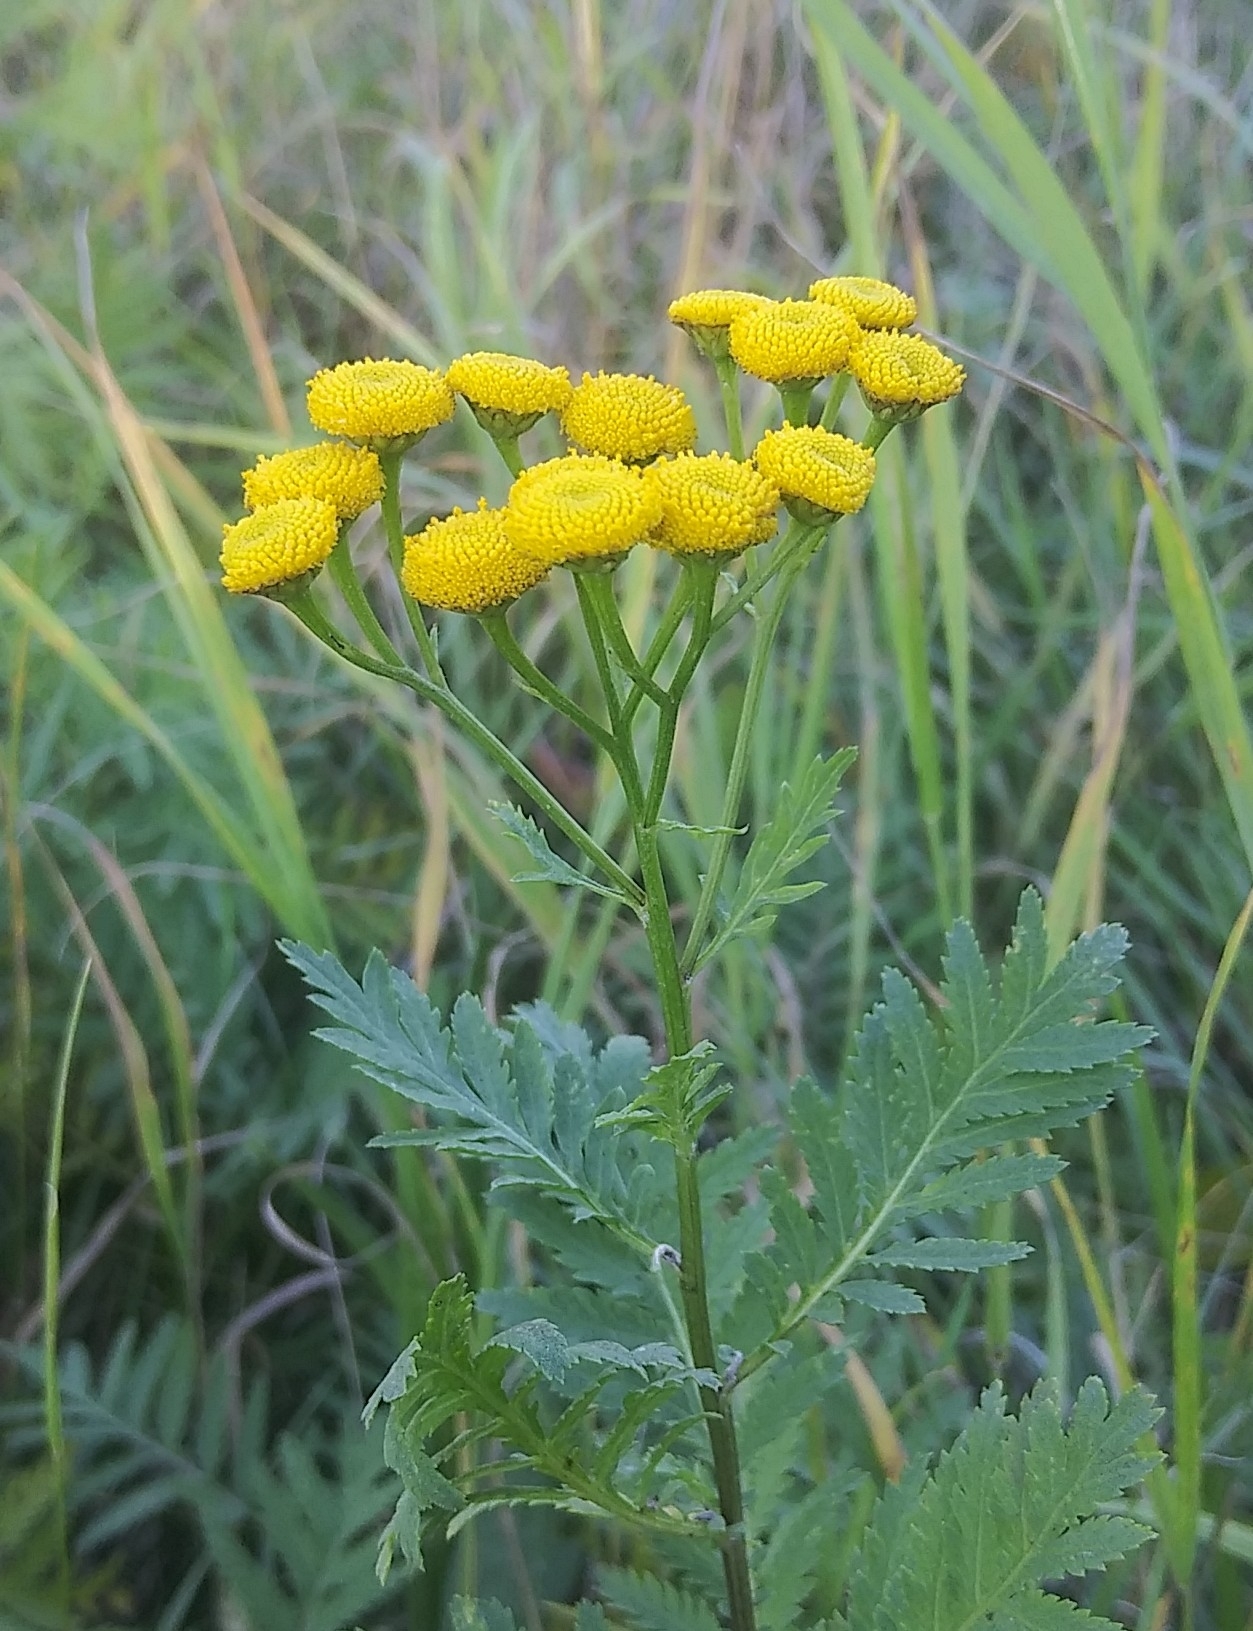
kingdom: Plantae
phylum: Tracheophyta
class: Magnoliopsida
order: Asterales
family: Asteraceae
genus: Tanacetum
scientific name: Tanacetum vulgare
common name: Common tansy
